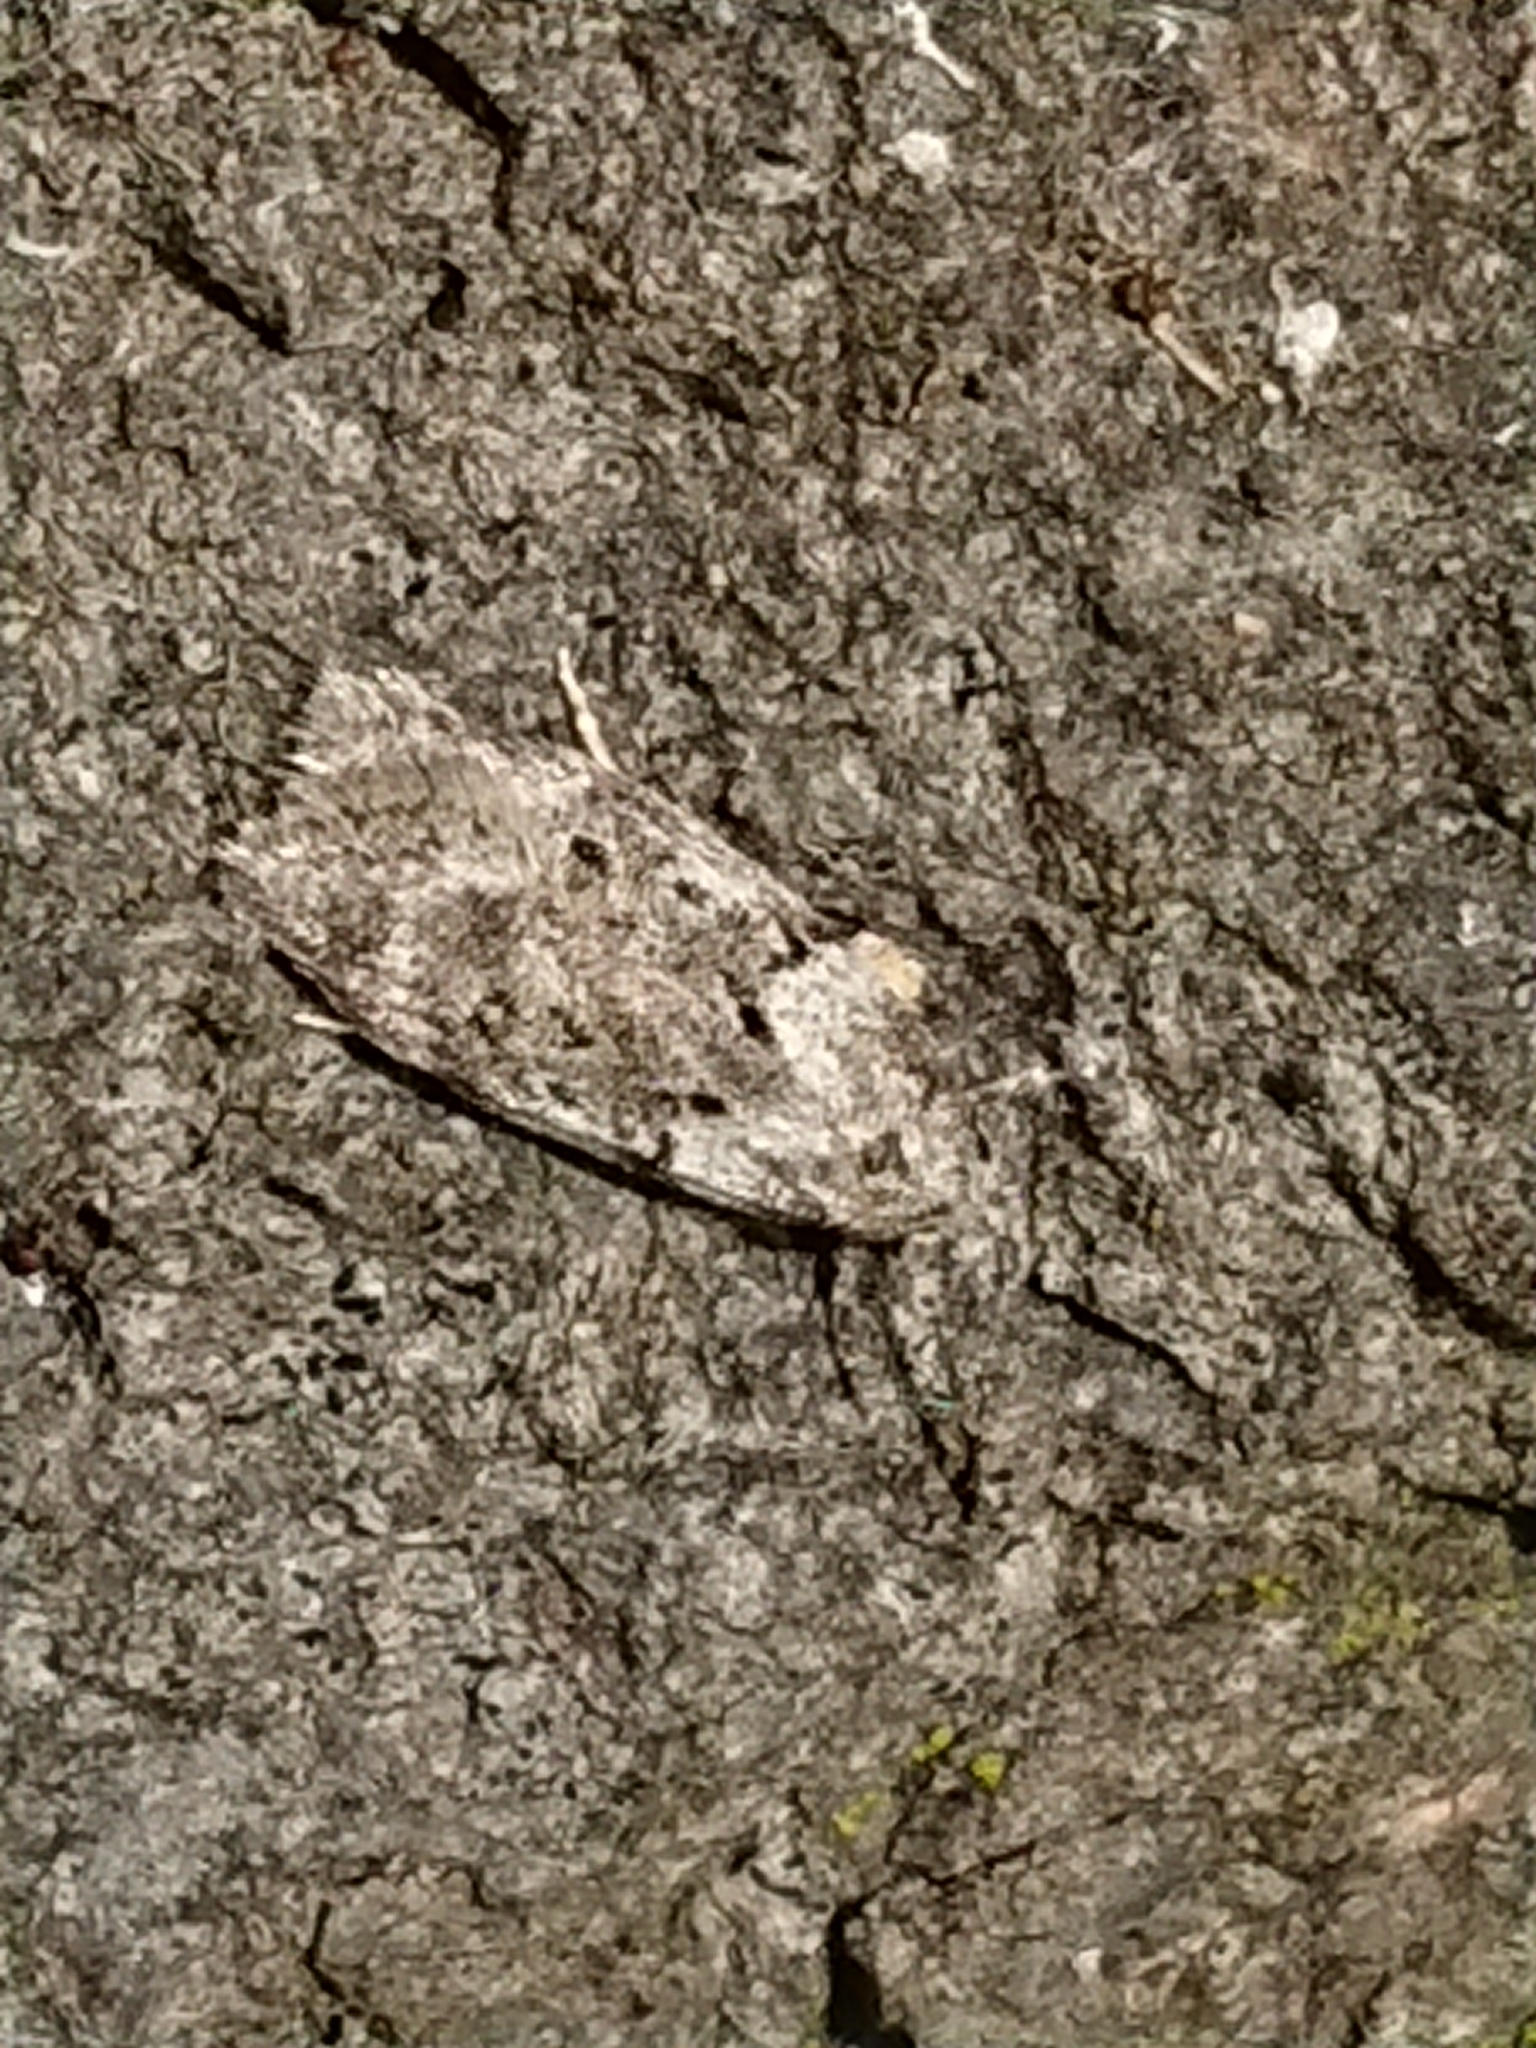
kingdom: Animalia
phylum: Arthropoda
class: Insecta
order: Lepidoptera
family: Oecophoridae
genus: Izatha
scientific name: Izatha convulsella
